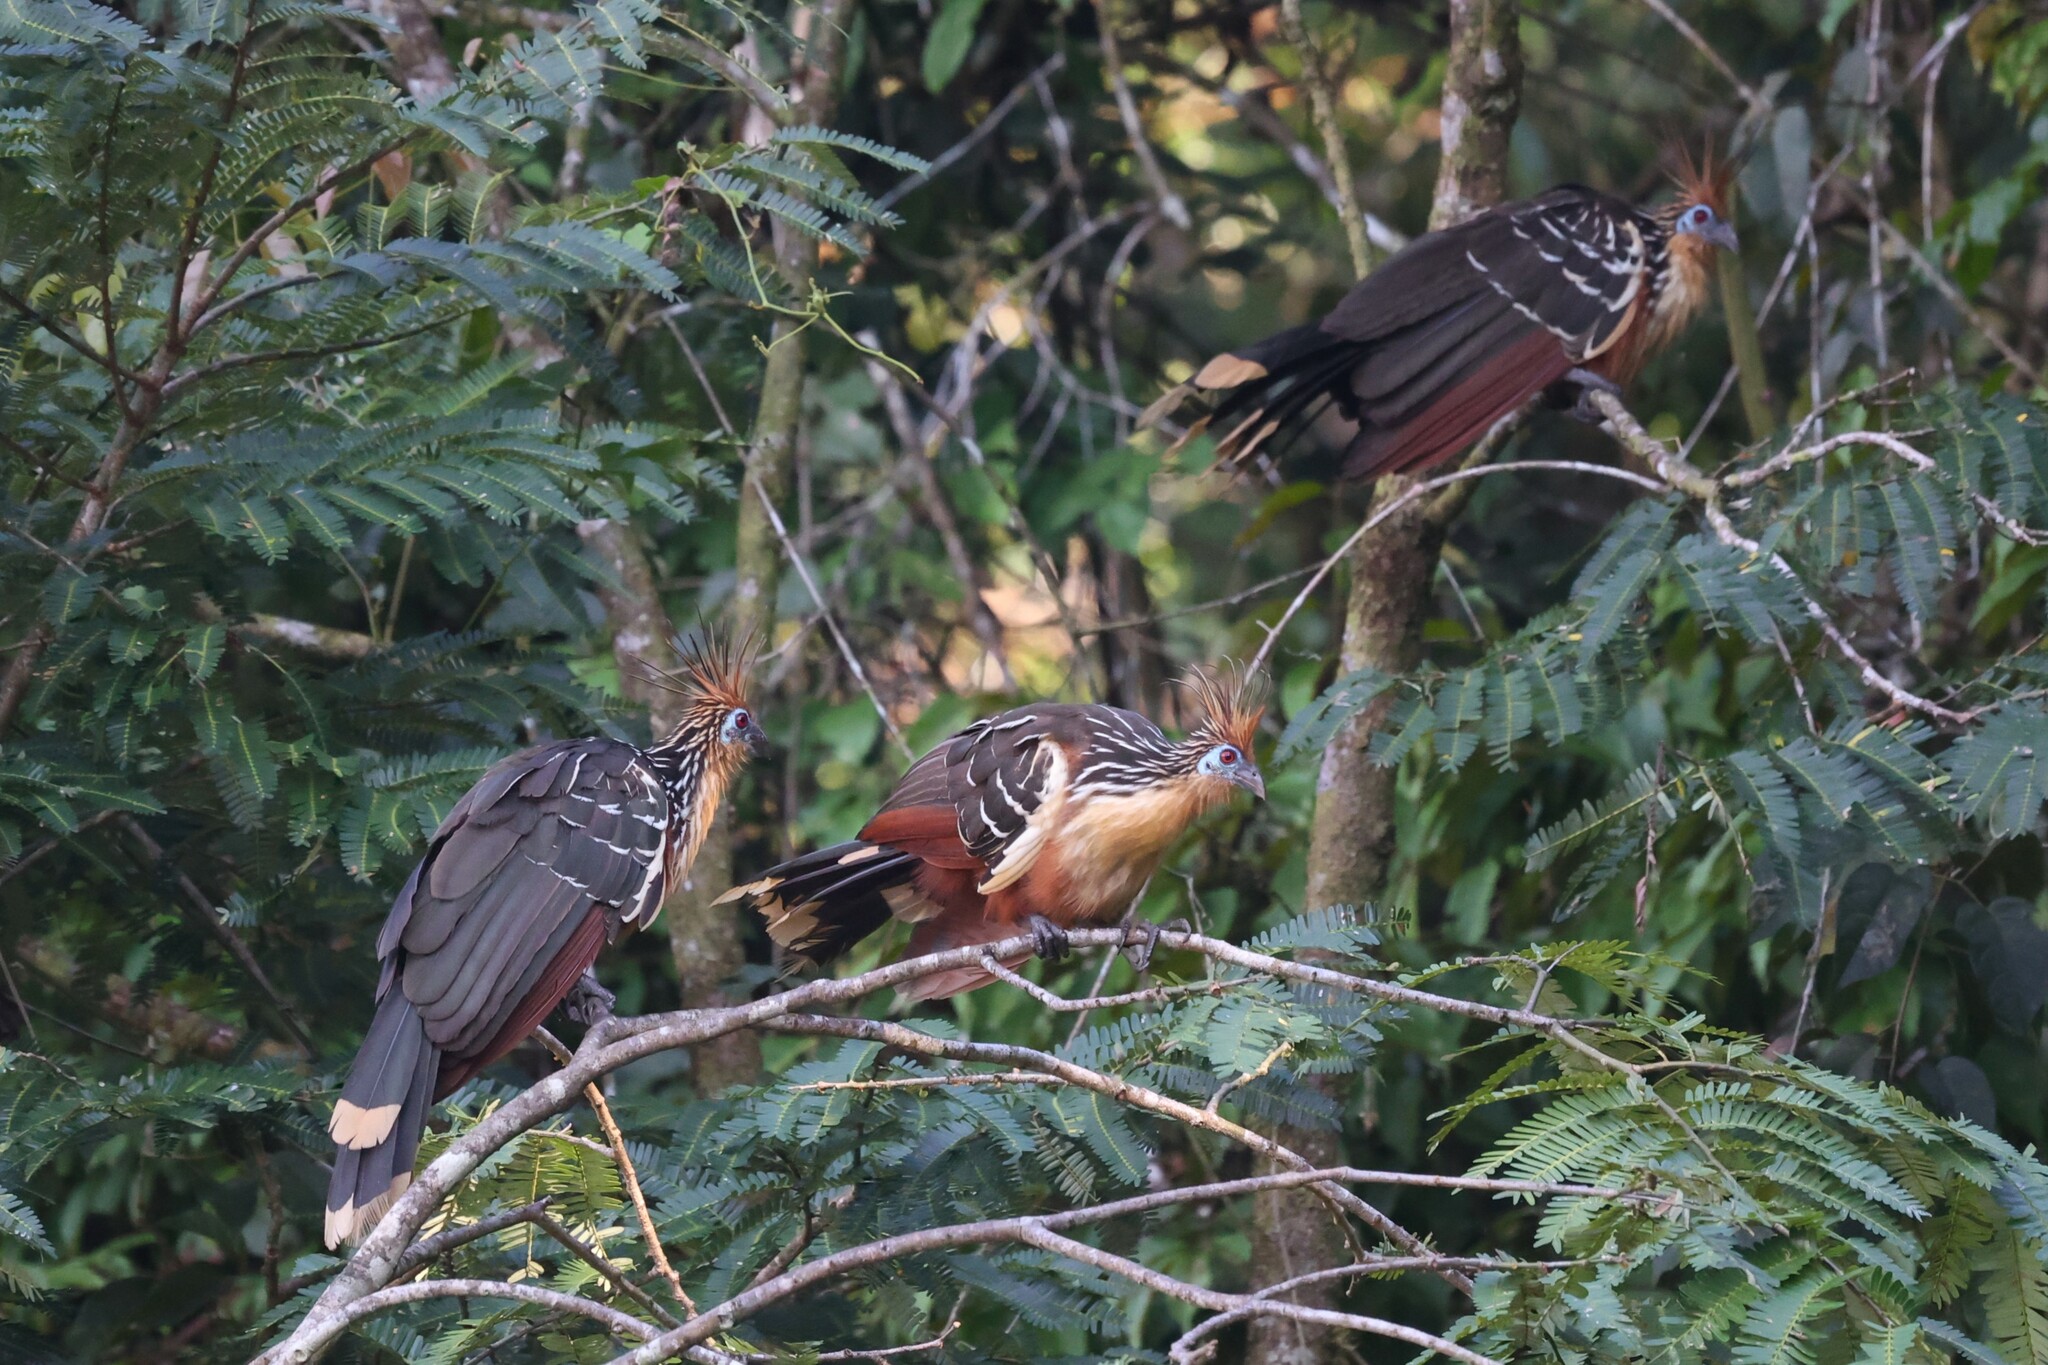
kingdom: Animalia
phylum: Chordata
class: Aves
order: Opisthocomiformes
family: Opisthocomidae
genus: Opisthocomus
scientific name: Opisthocomus hoazin
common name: Hoatzin
